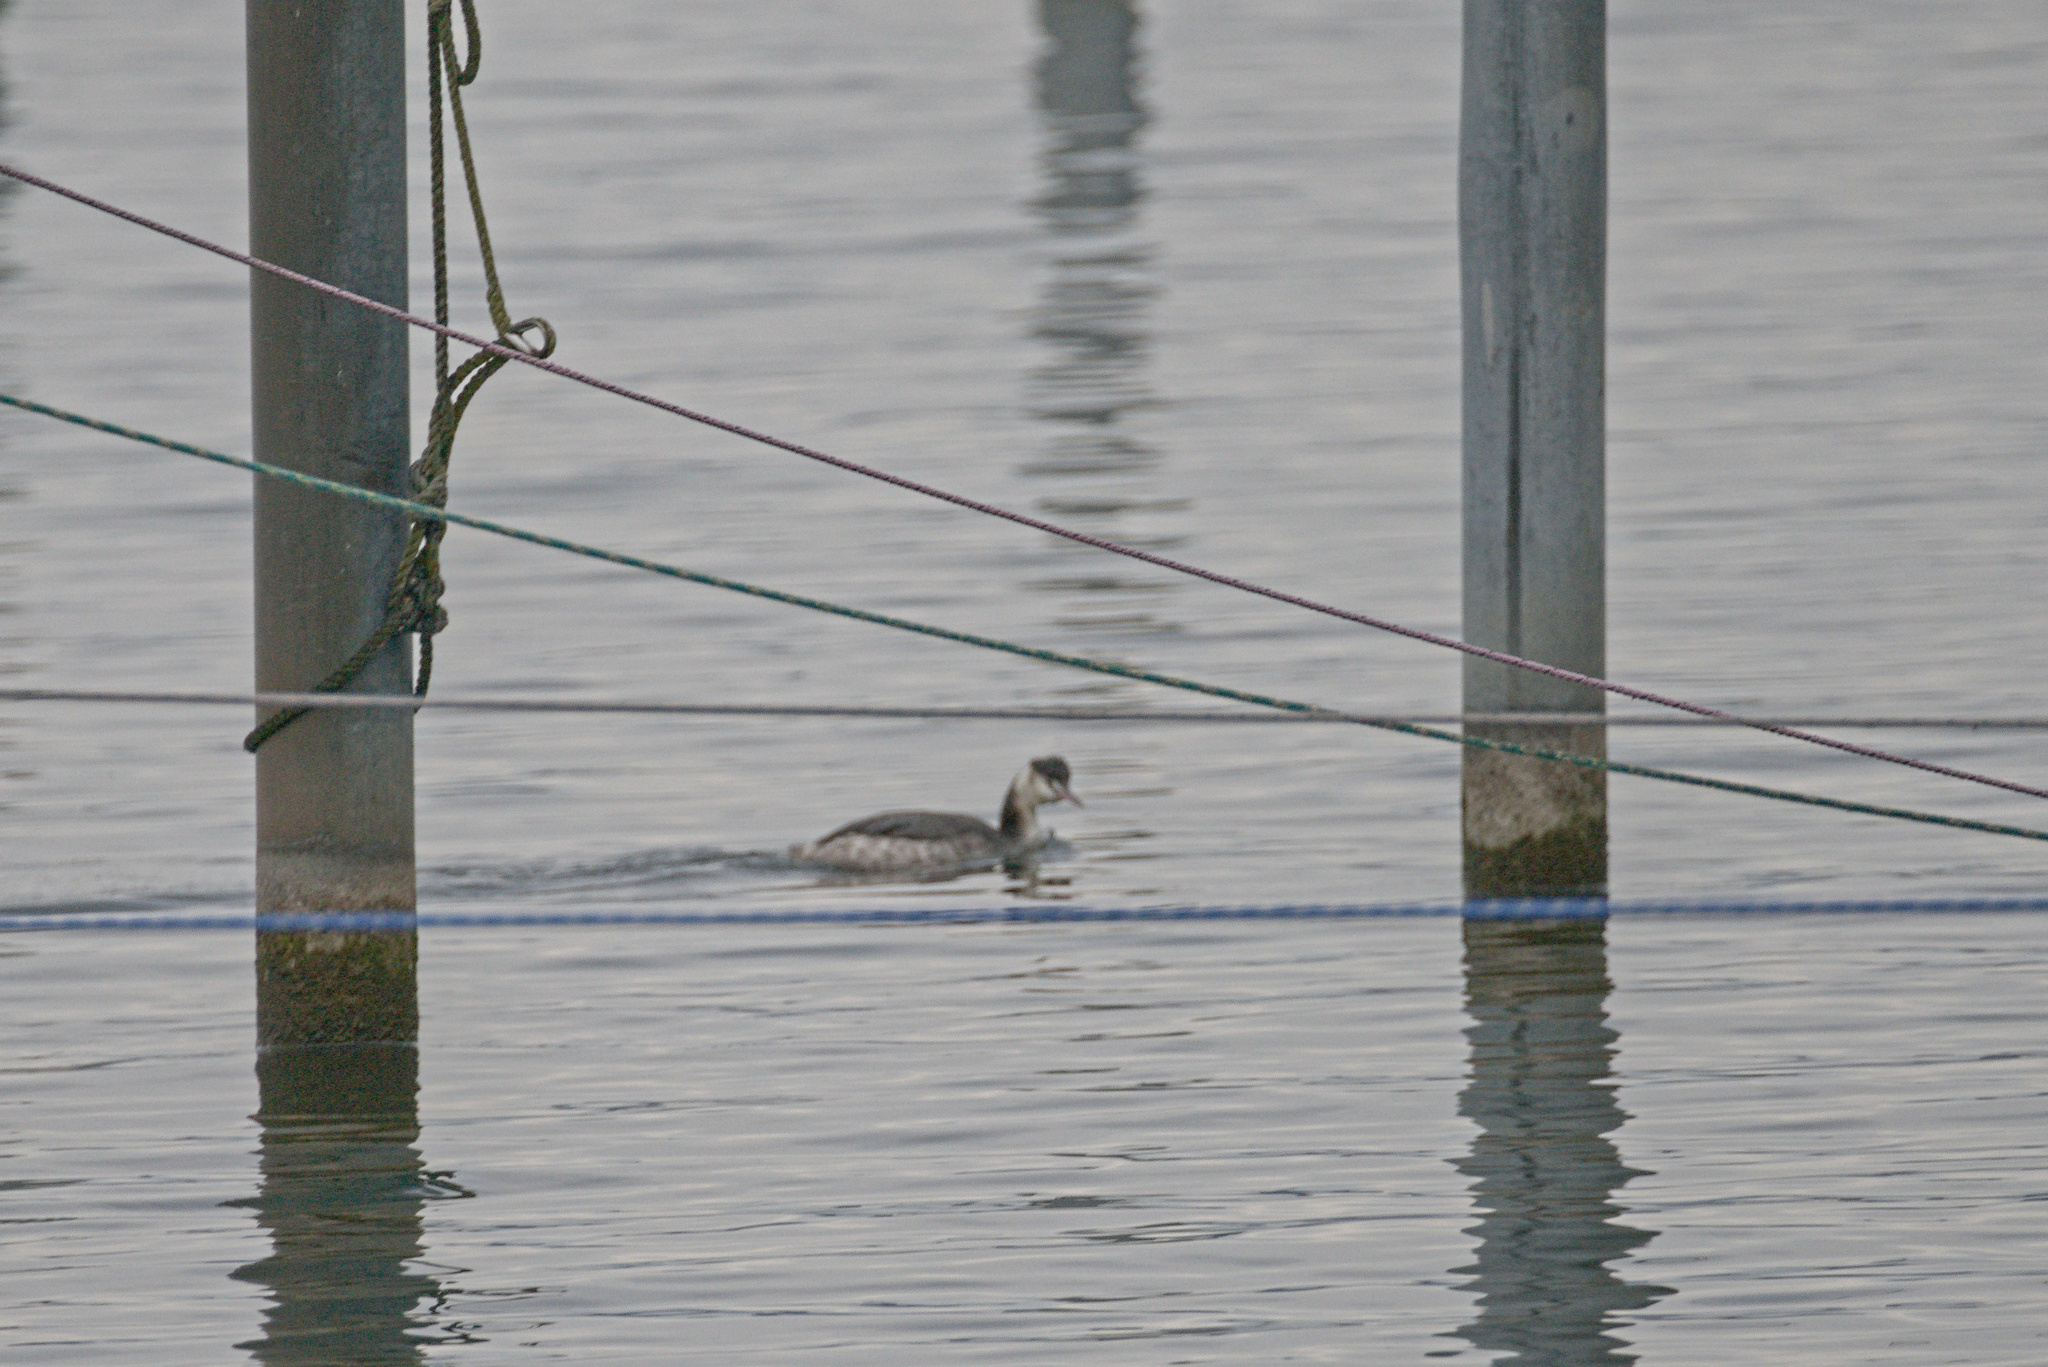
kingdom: Animalia
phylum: Chordata
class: Aves
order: Podicipediformes
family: Podicipedidae
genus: Podiceps
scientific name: Podiceps cristatus
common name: Great crested grebe
